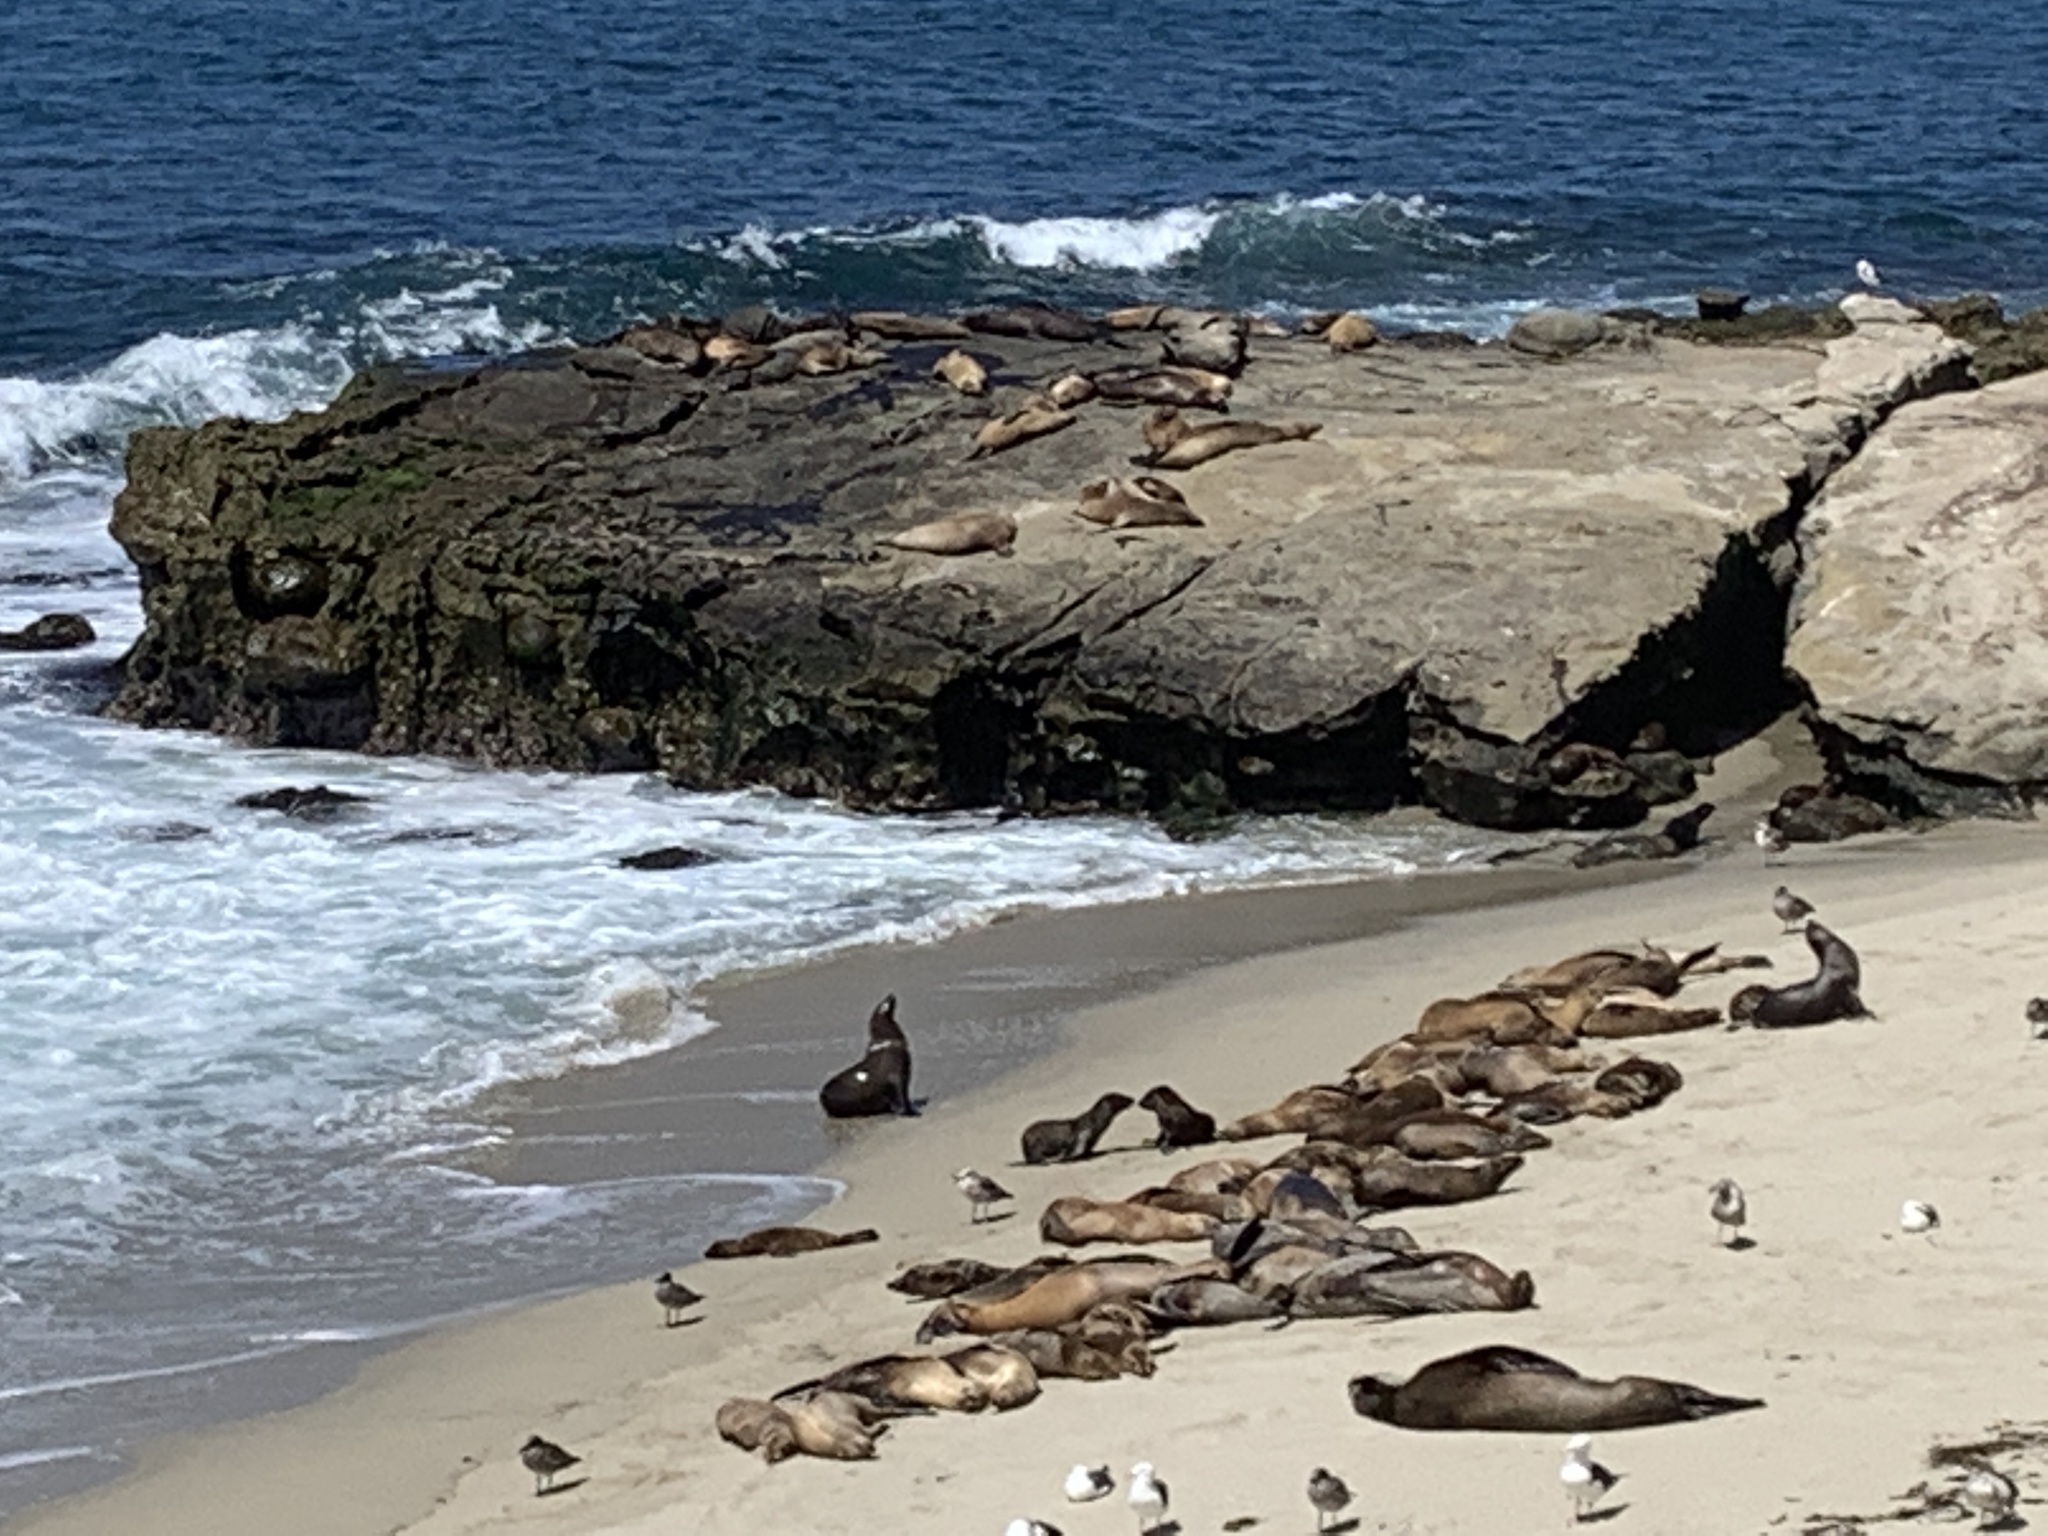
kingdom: Animalia
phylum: Chordata
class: Mammalia
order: Carnivora
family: Otariidae
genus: Zalophus
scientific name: Zalophus californianus
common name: California sea lion
